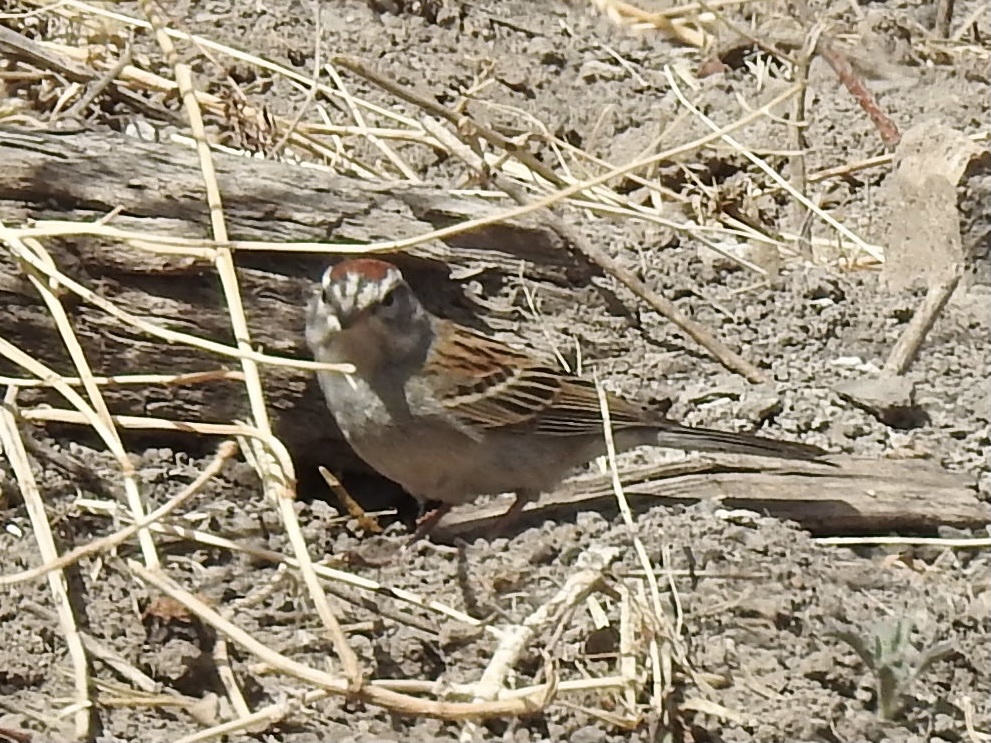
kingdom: Animalia
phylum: Chordata
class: Aves
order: Passeriformes
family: Passerellidae
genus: Spizella
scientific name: Spizella passerina
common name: Chipping sparrow
